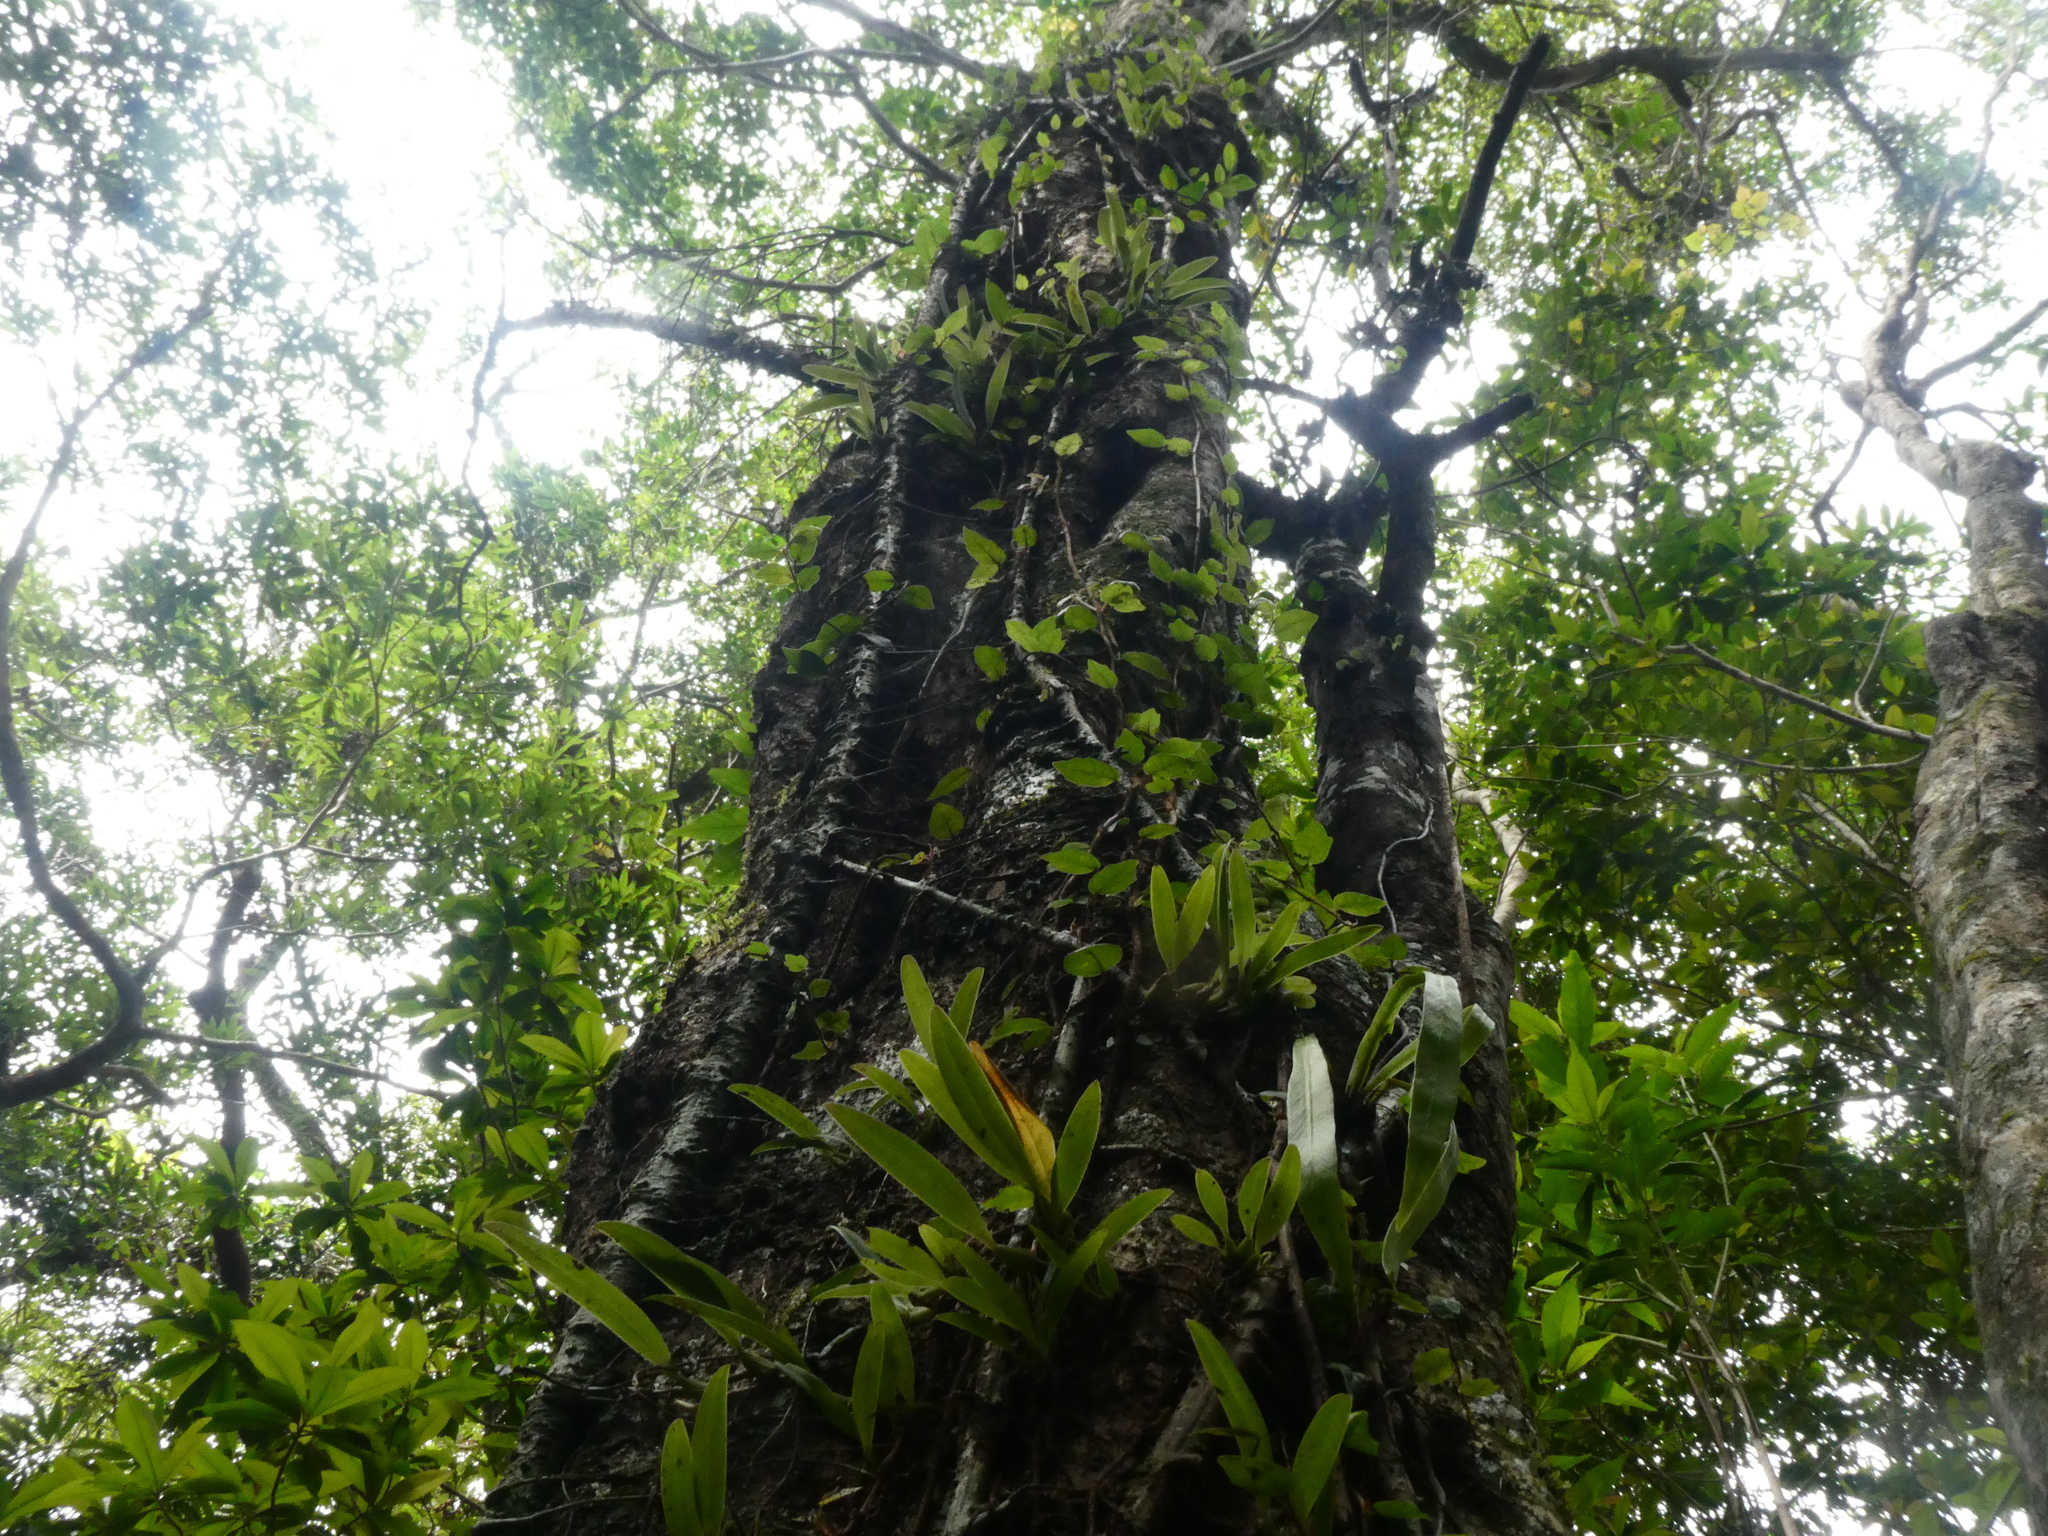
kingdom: Plantae
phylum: Tracheophyta
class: Liliopsida
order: Asparagales
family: Orchidaceae
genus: Bulbophyllum
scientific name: Bulbophyllum japonicum
